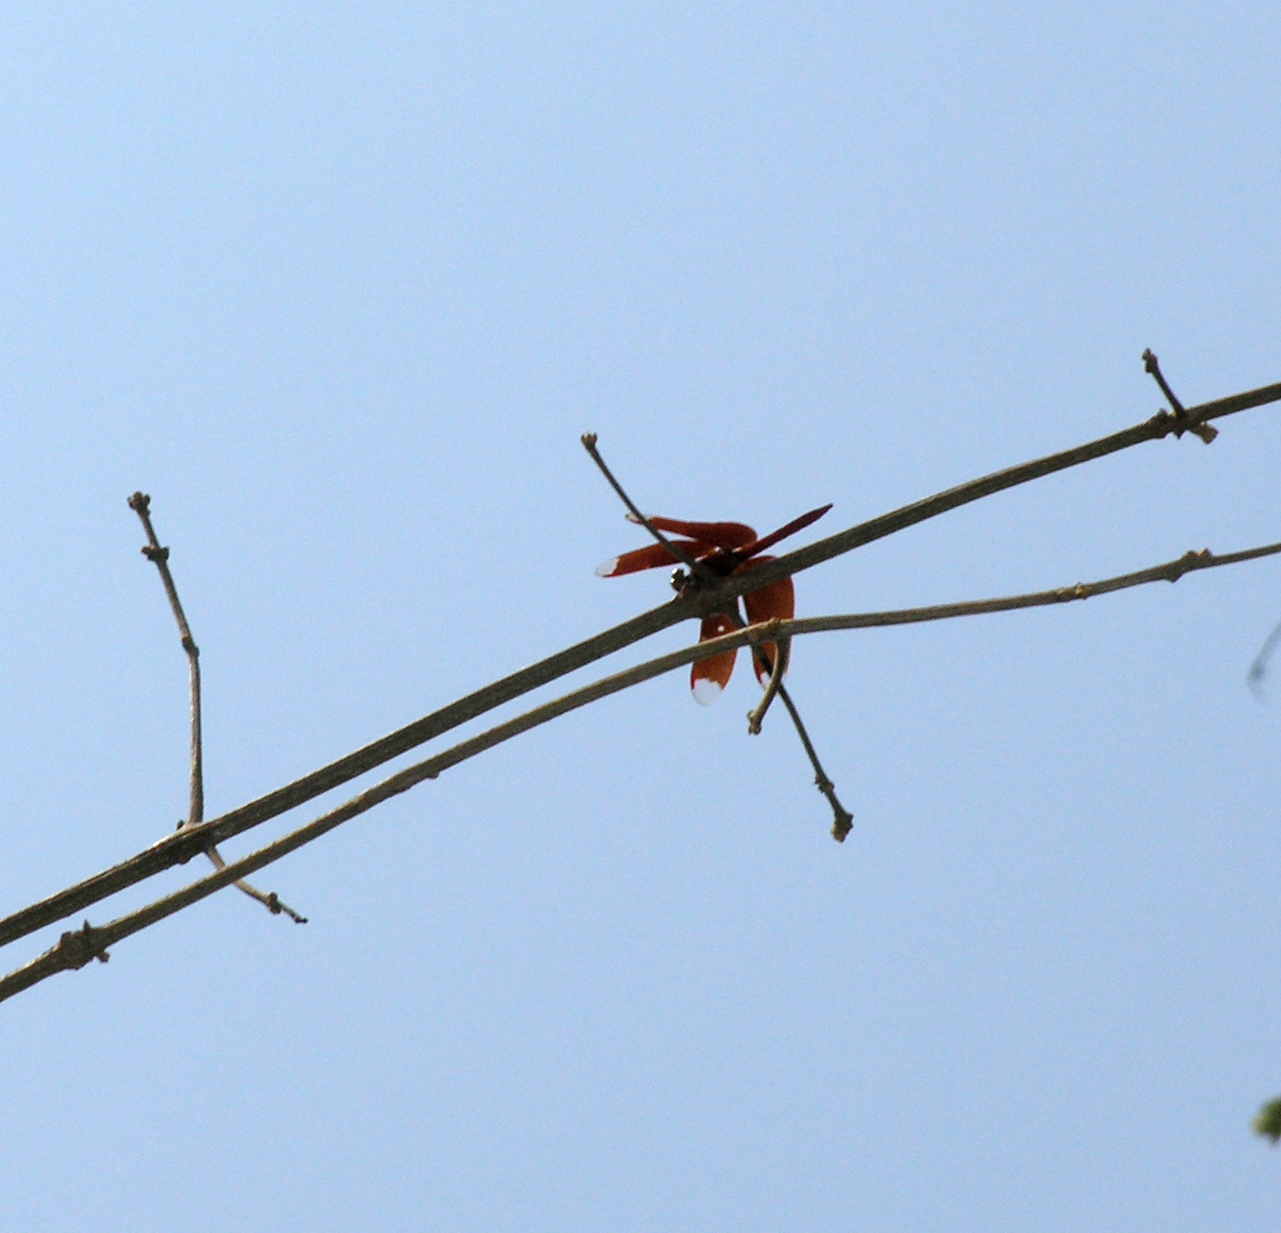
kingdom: Animalia
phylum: Arthropoda
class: Insecta
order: Odonata
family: Libellulidae
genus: Neurothemis
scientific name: Neurothemis fulvia
